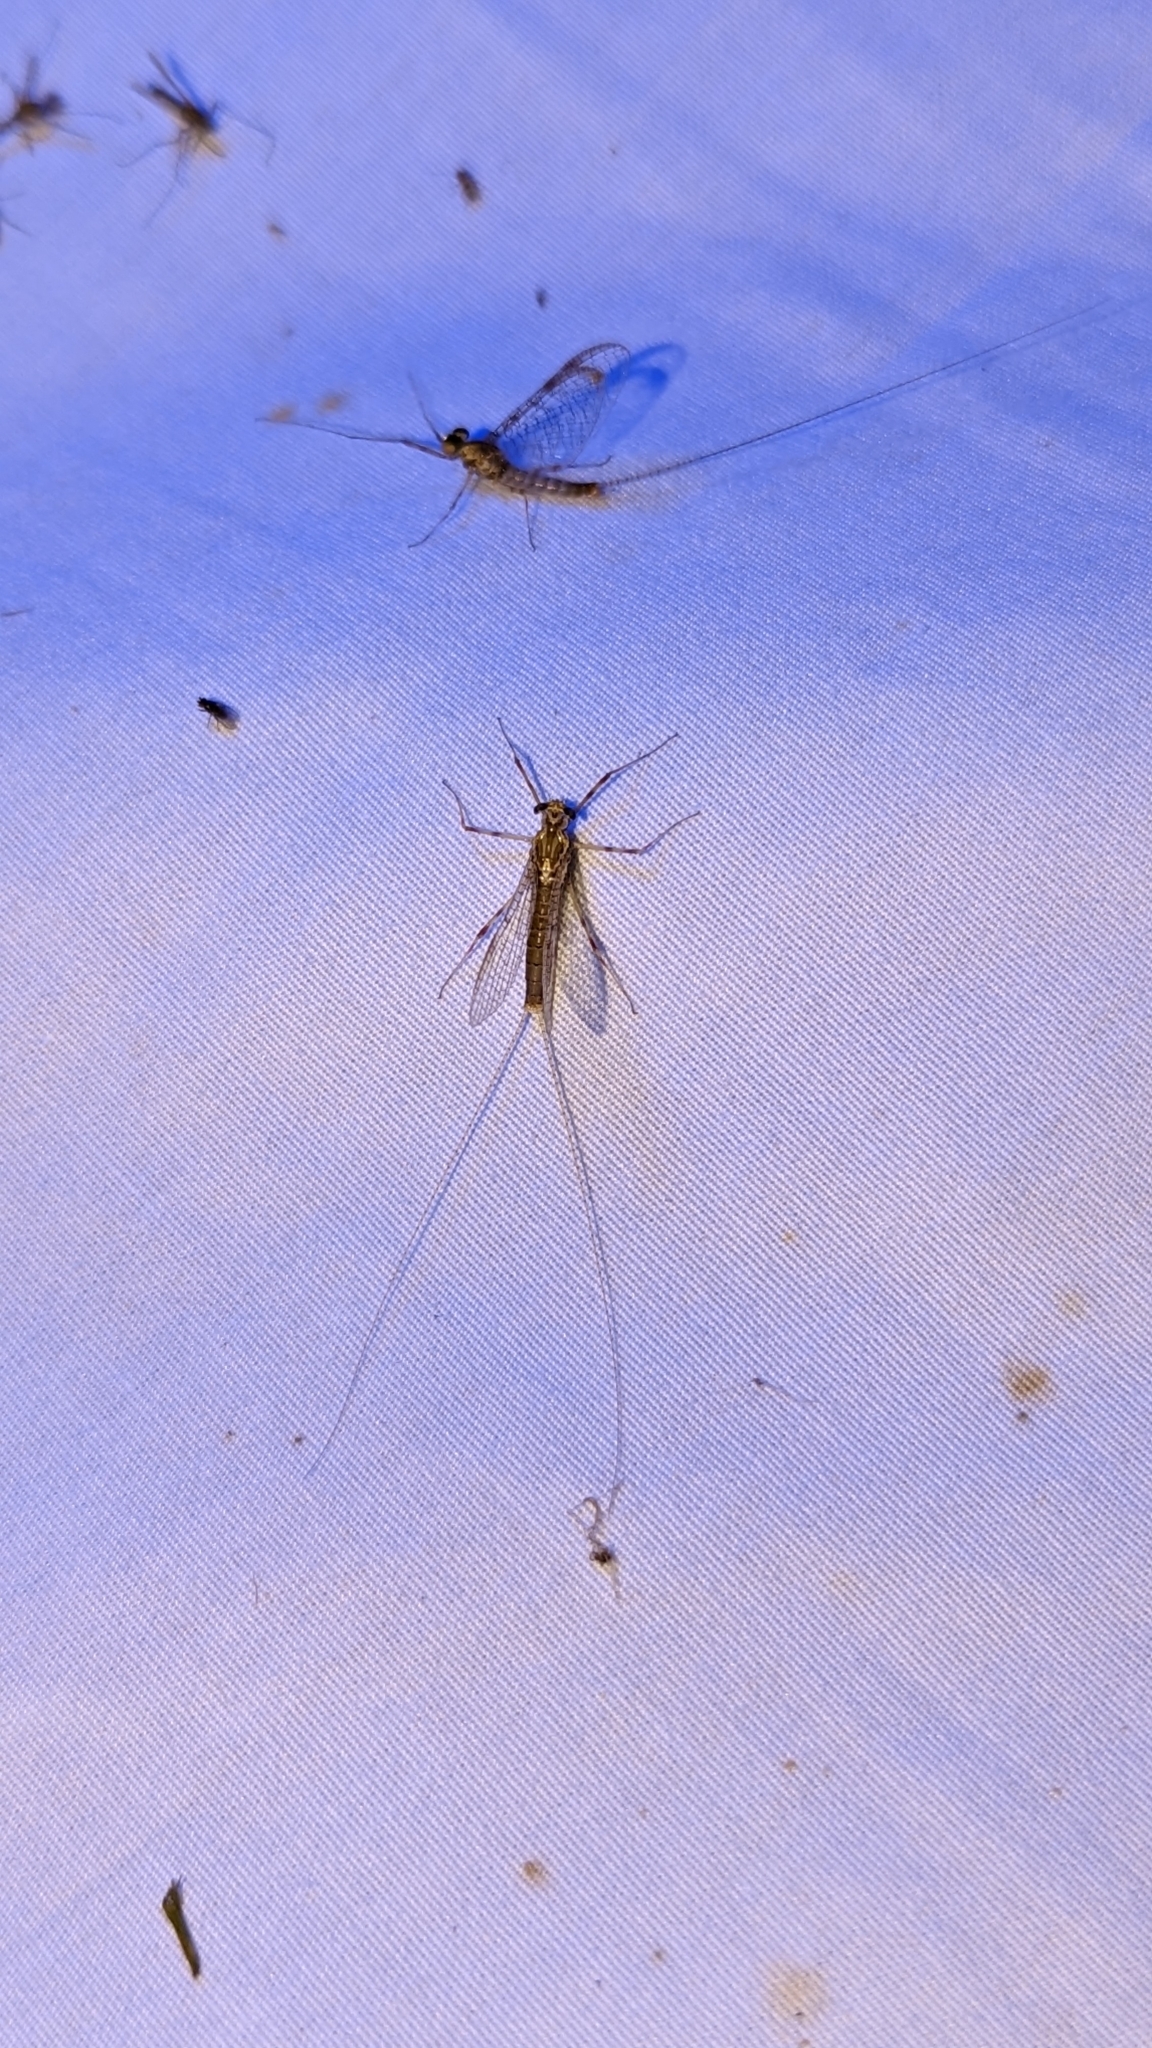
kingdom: Animalia
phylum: Arthropoda
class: Insecta
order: Ephemeroptera
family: Ephemeridae
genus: Hexagenia
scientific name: Hexagenia limbata
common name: Giant mayfly
